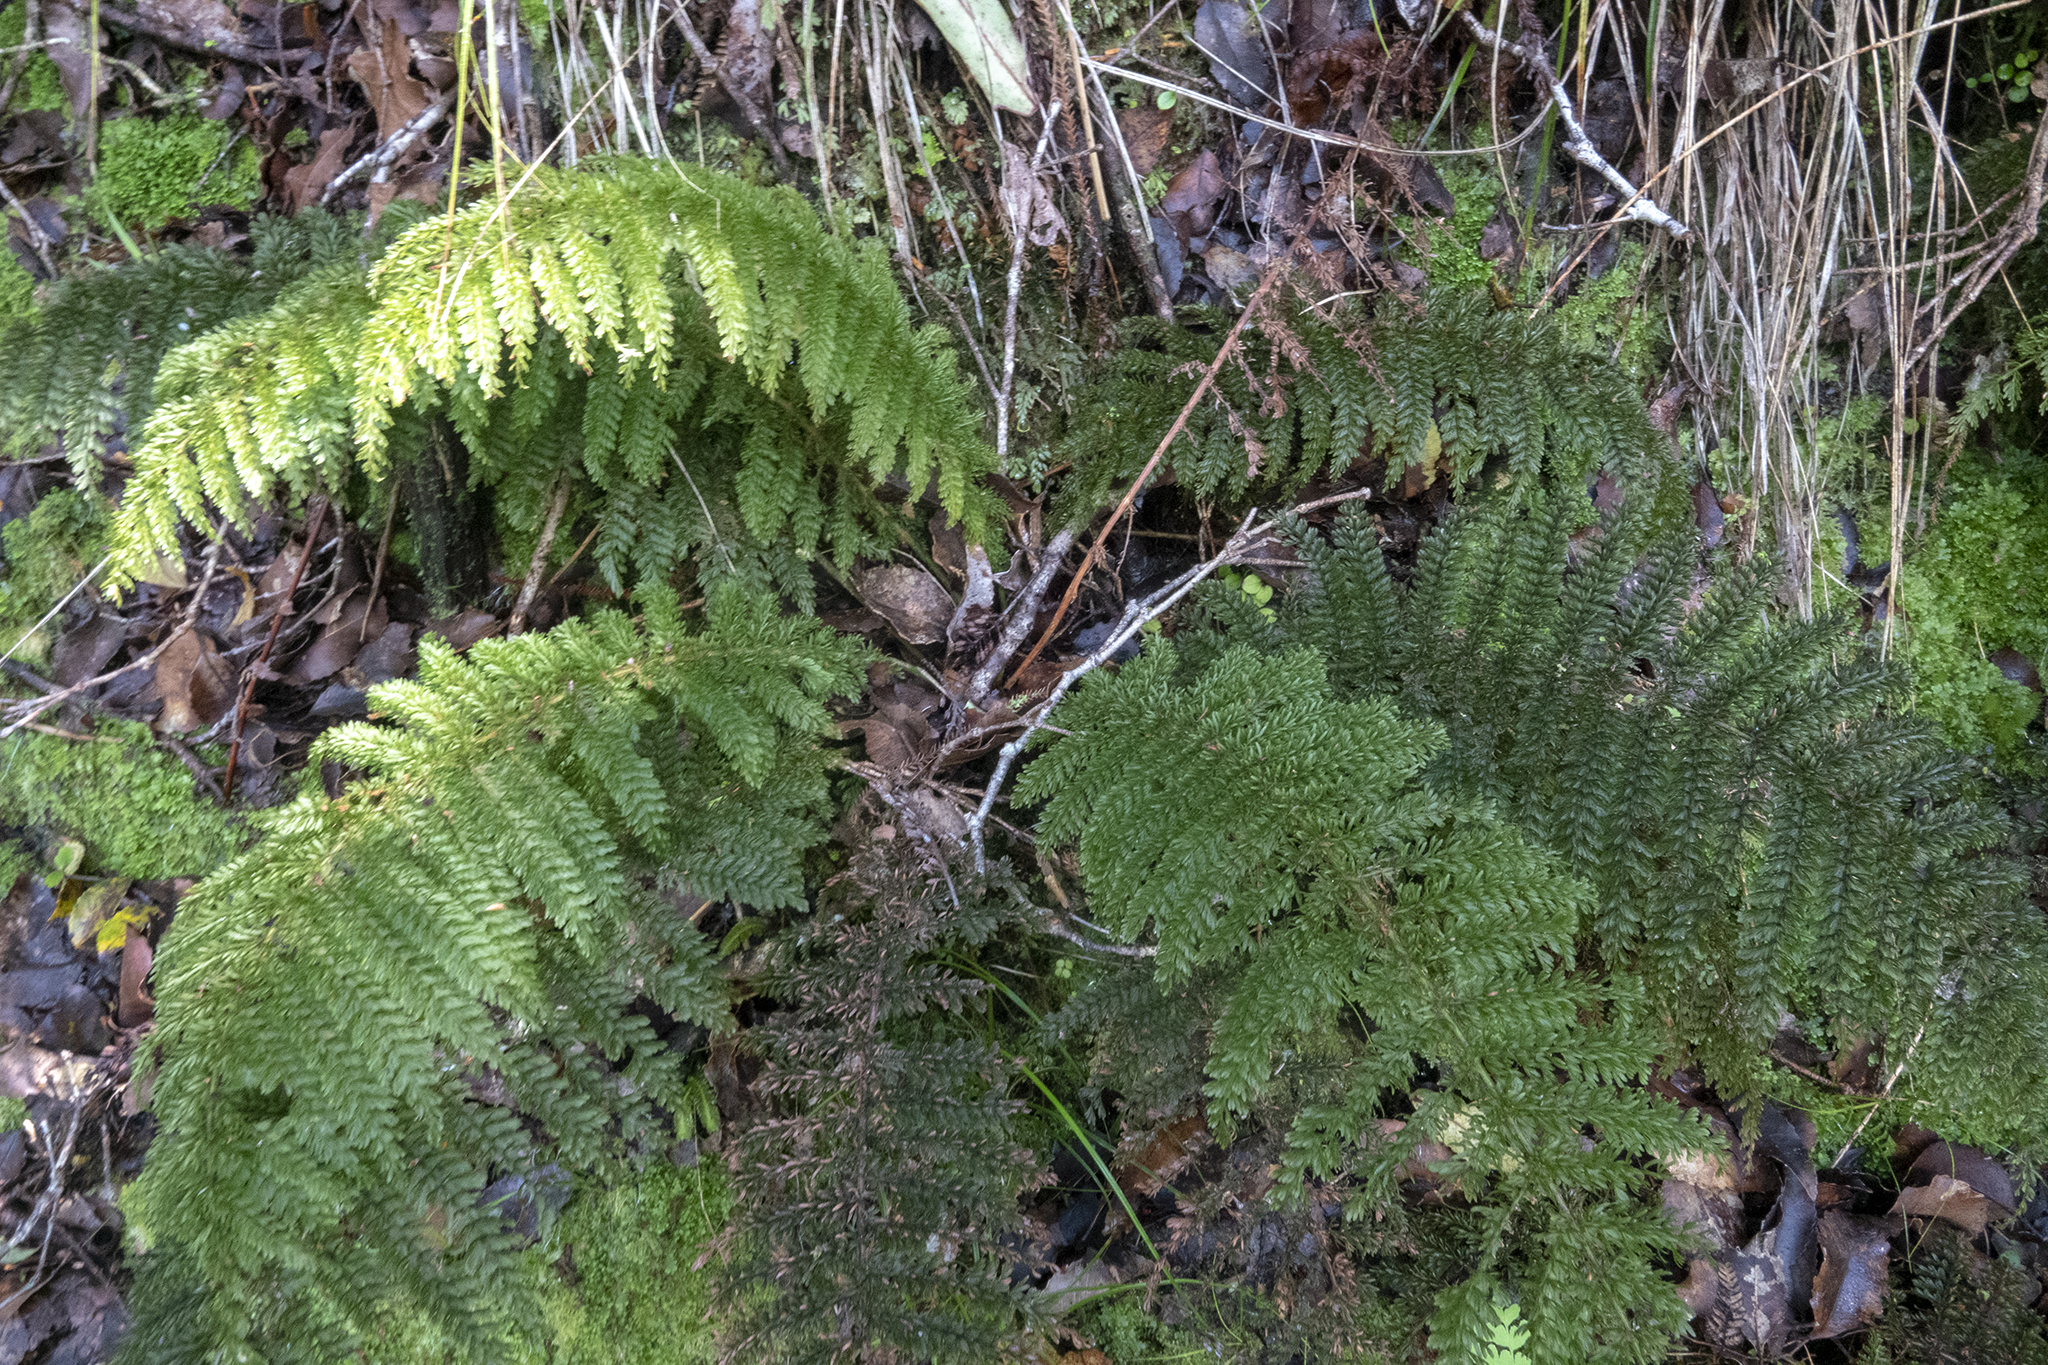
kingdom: Plantae
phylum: Tracheophyta
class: Polypodiopsida
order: Osmundales
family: Osmundaceae
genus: Leptopteris
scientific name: Leptopteris superba
